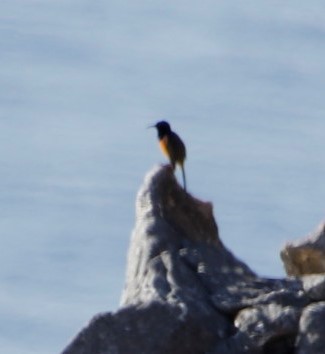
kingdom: Animalia
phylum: Chordata
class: Aves
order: Passeriformes
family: Nectariniidae
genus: Anthobaphes
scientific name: Anthobaphes violacea
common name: Orange-breasted sunbird
